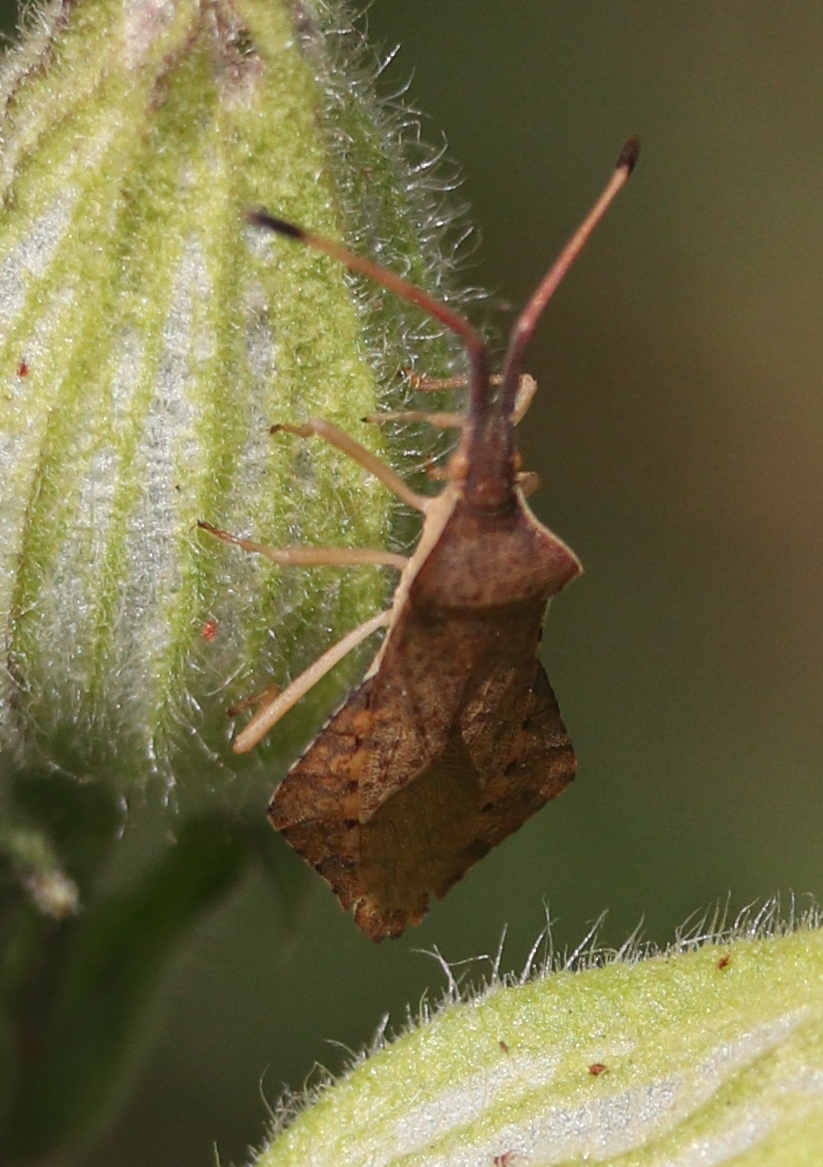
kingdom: Animalia
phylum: Arthropoda
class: Insecta
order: Hemiptera
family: Coreidae
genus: Syromastus
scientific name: Syromastus rhombeus
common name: Rhombic leatherbug
